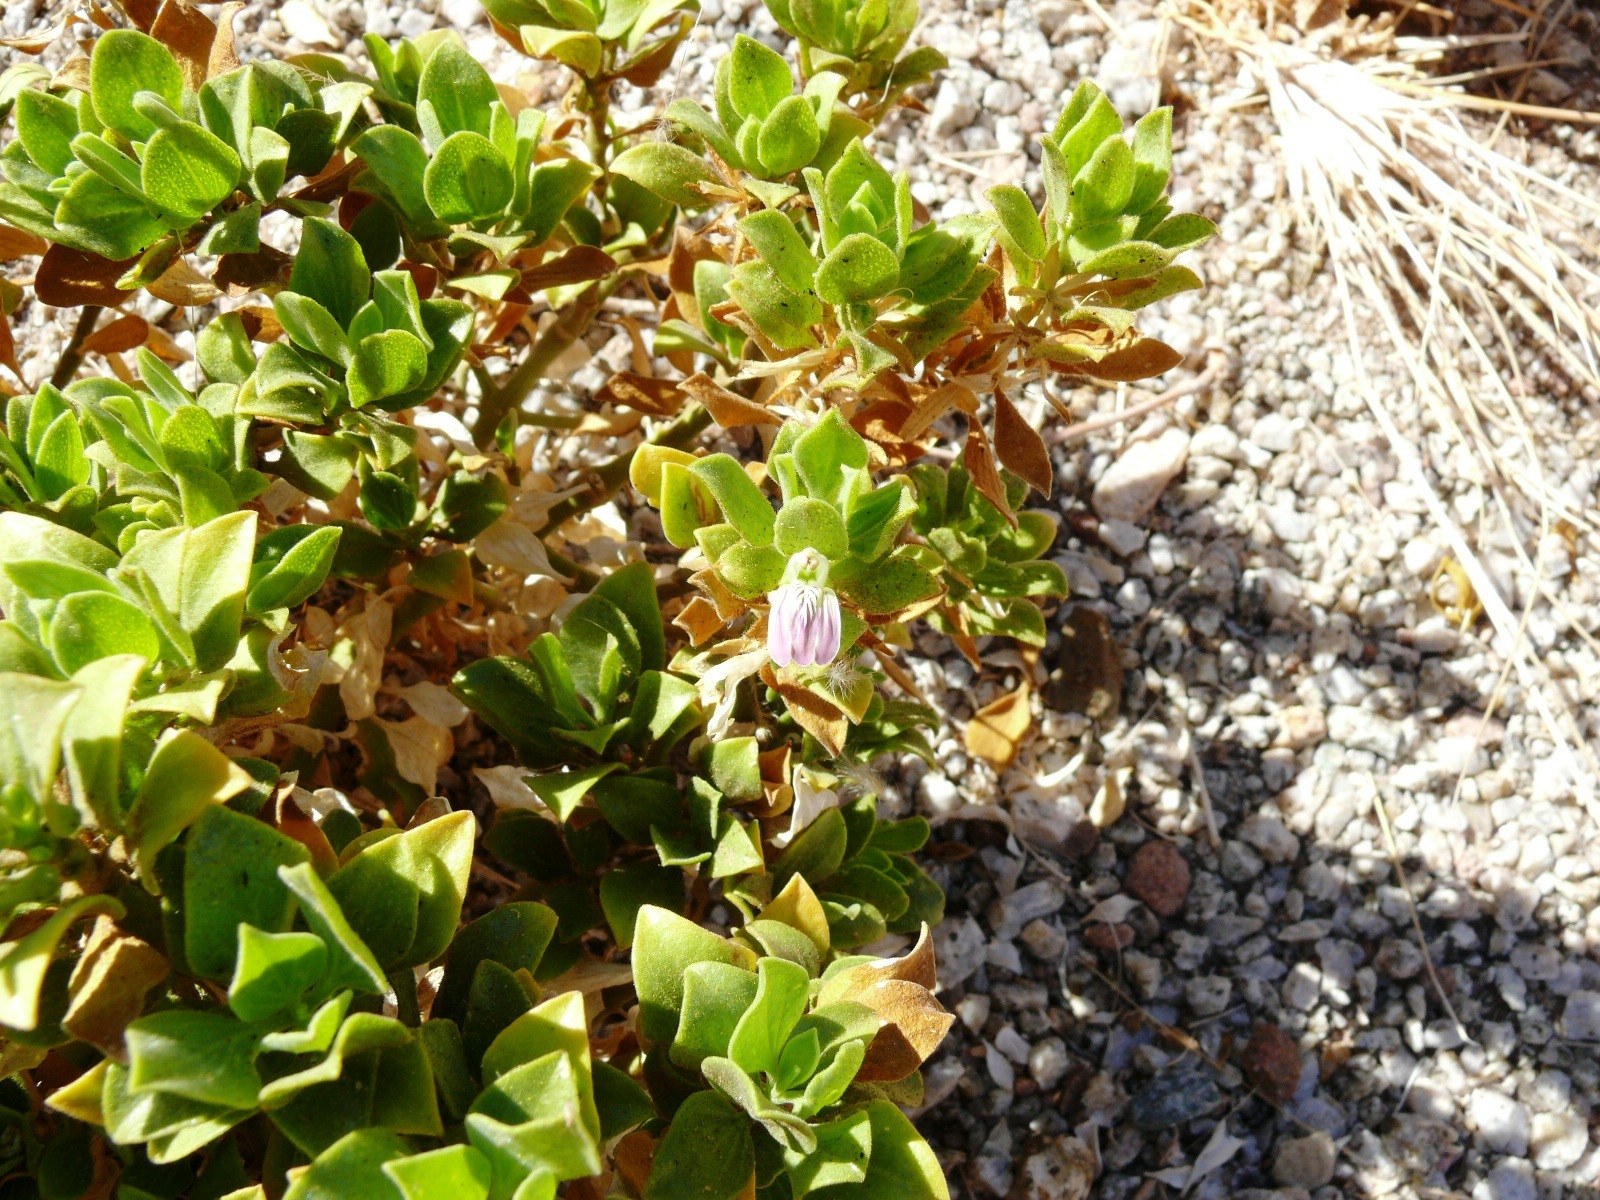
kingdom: Plantae
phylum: Tracheophyta
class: Magnoliopsida
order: Lamiales
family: Acanthaceae
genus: Pogonospermum
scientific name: Pogonospermum
